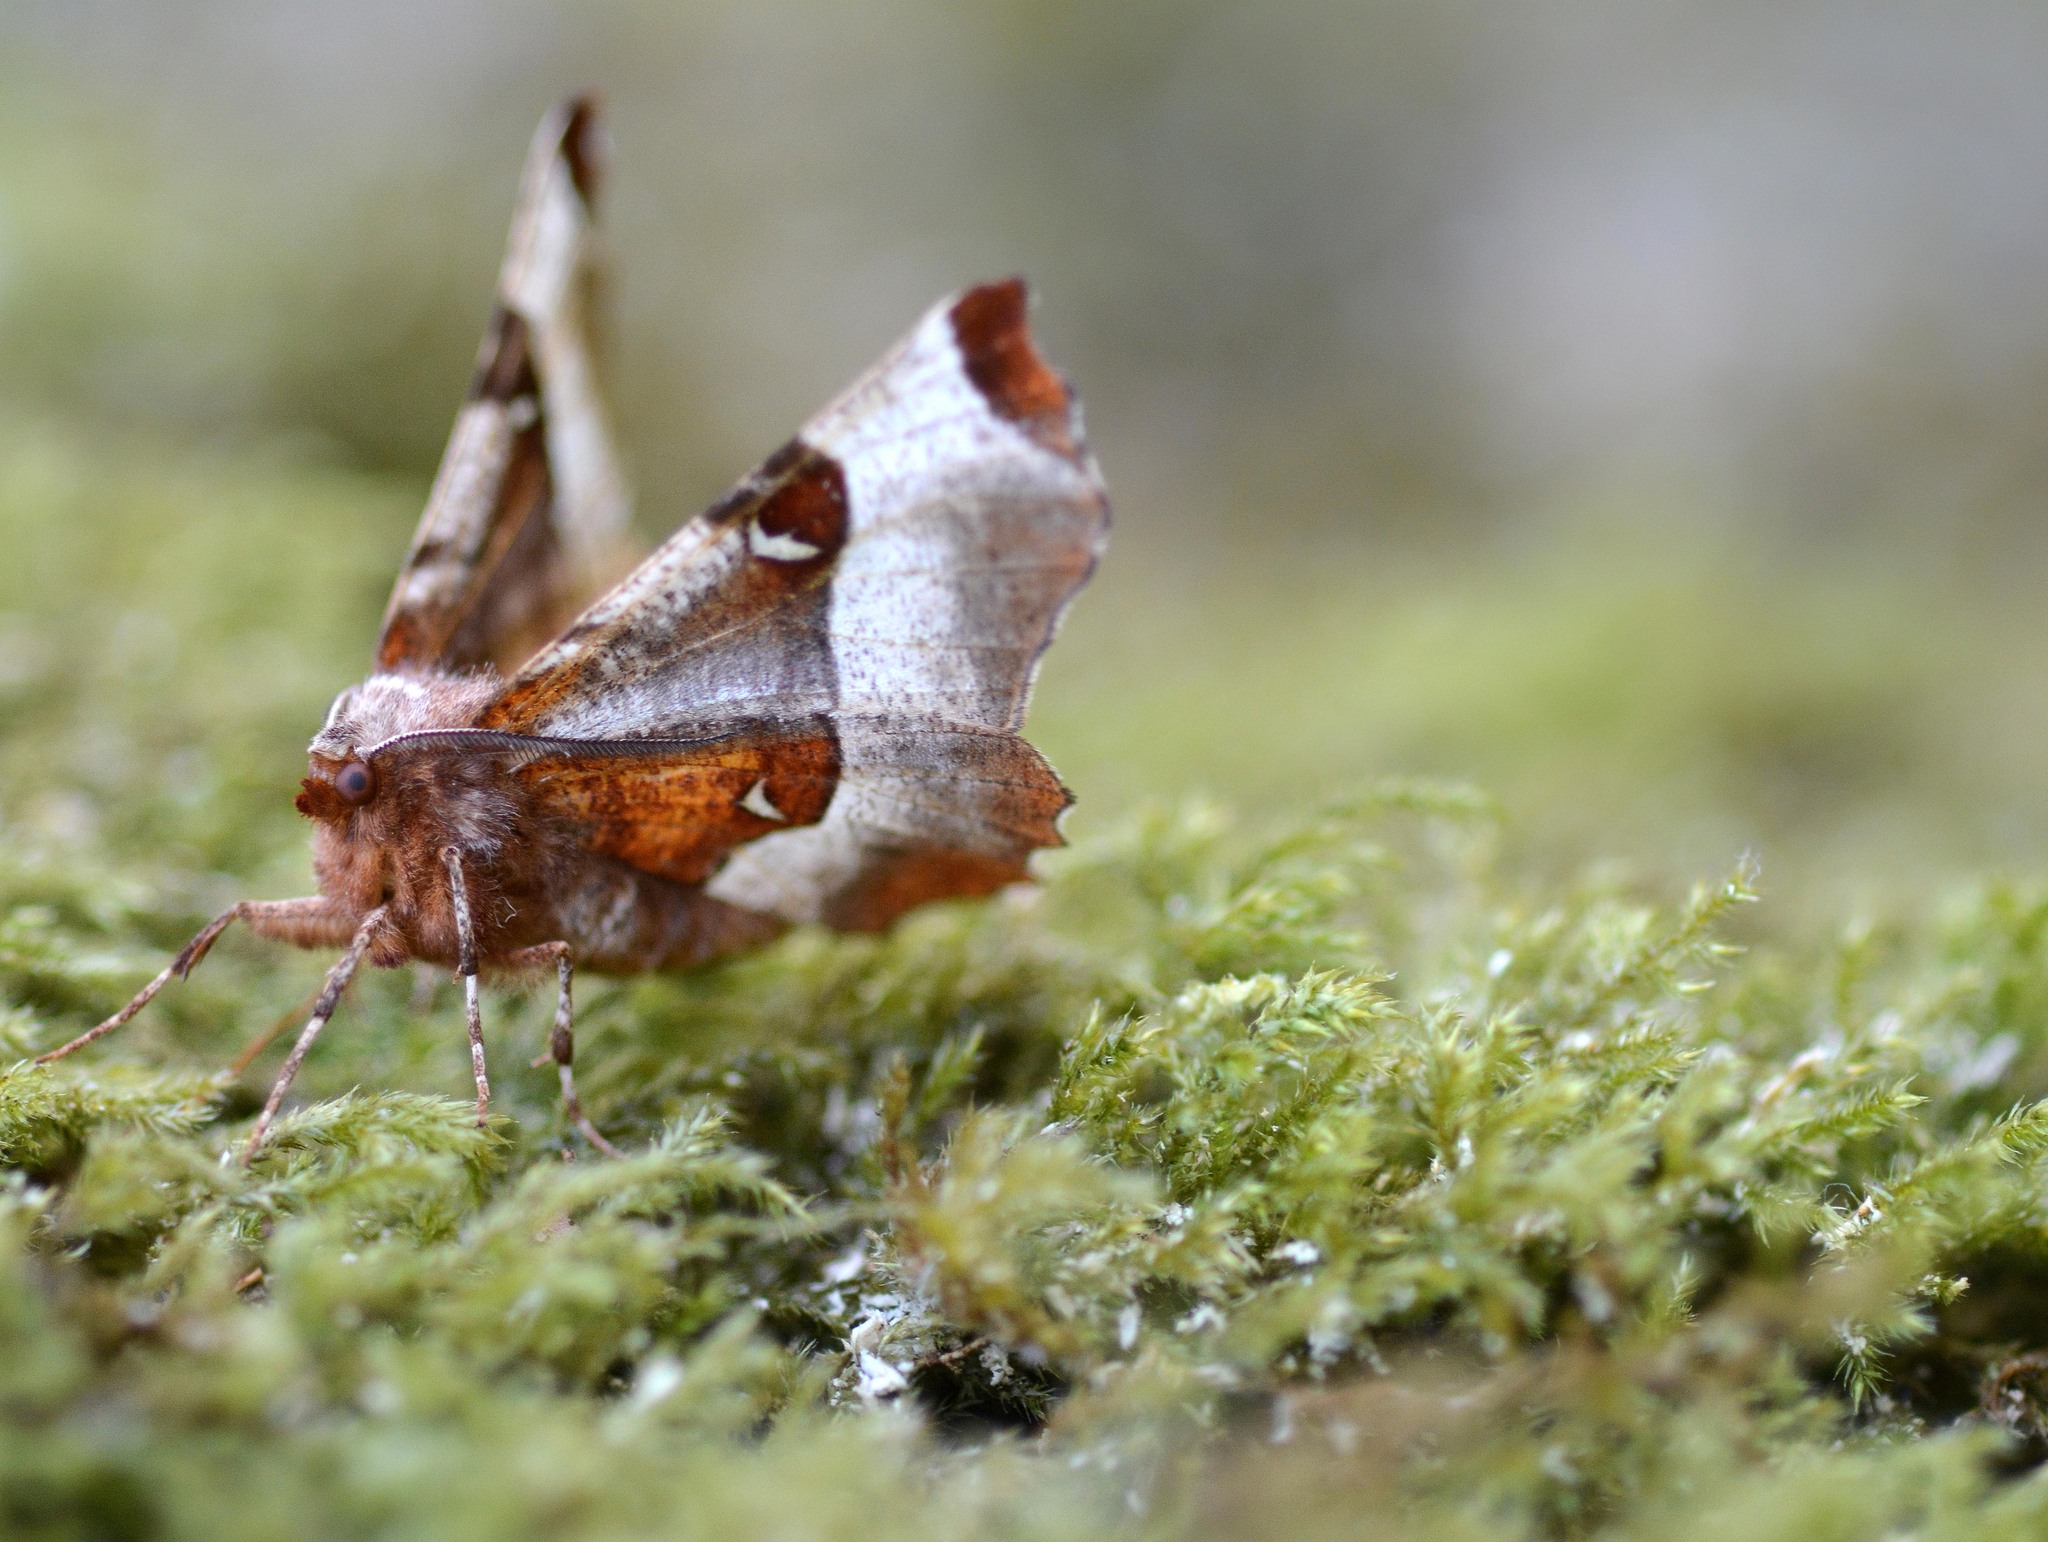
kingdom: Animalia
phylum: Arthropoda
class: Insecta
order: Lepidoptera
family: Geometridae
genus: Selenia
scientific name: Selenia tetralunaria
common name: Purple thorn
